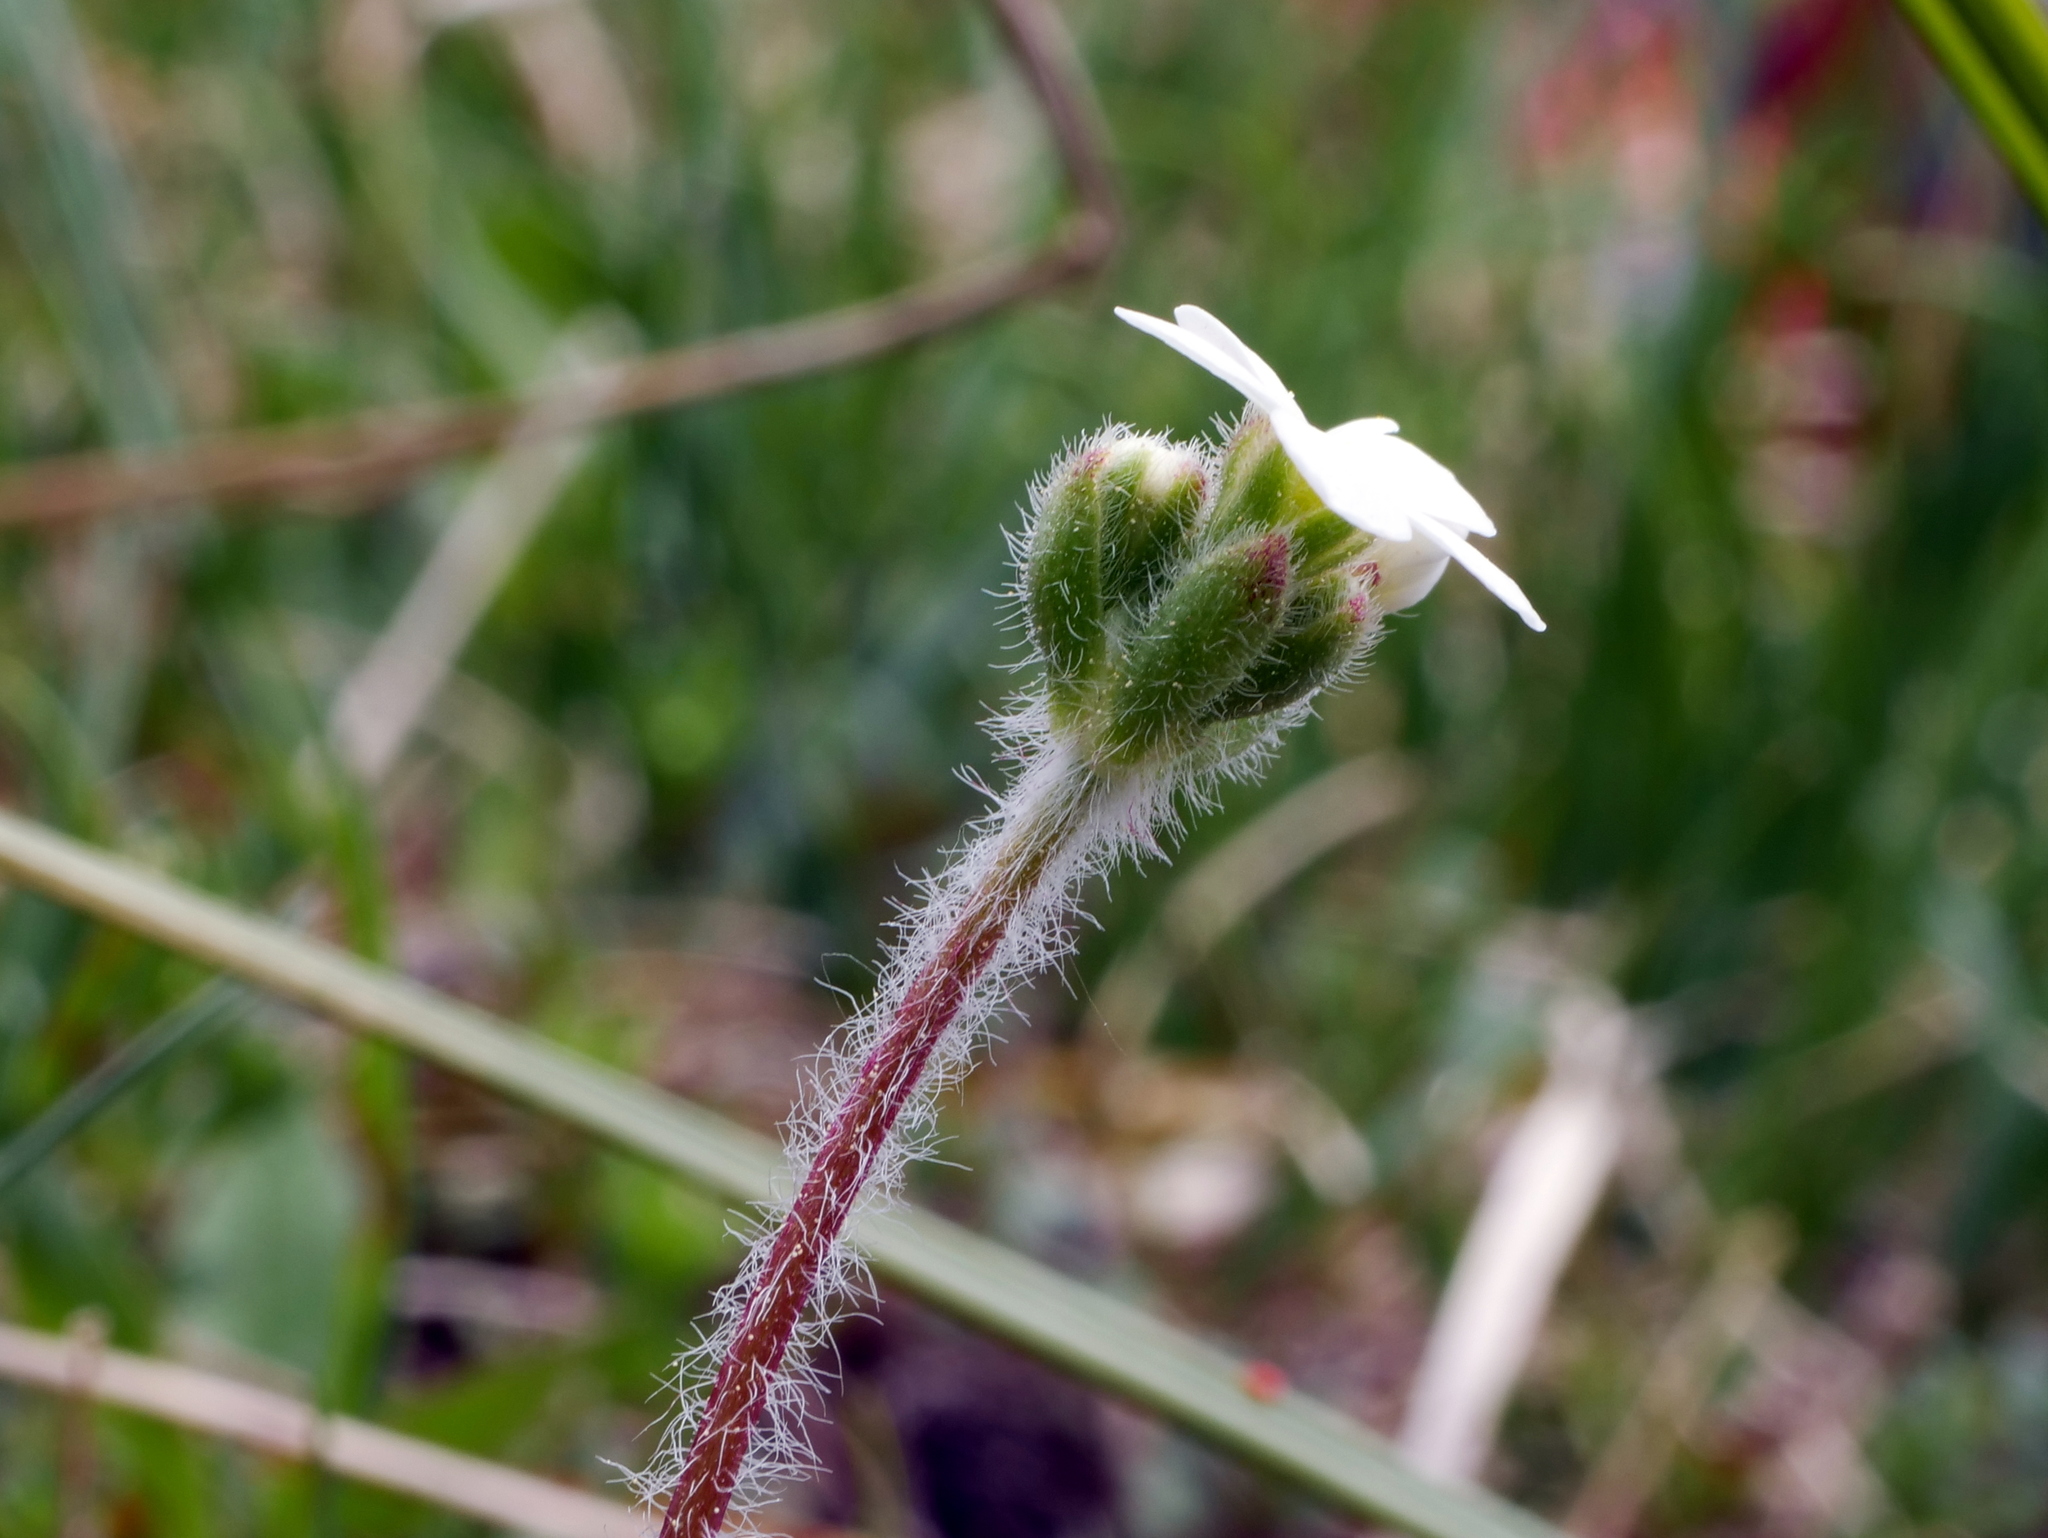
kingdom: Plantae
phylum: Tracheophyta
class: Magnoliopsida
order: Ericales
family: Primulaceae
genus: Androsace
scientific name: Androsace chamaejasme
